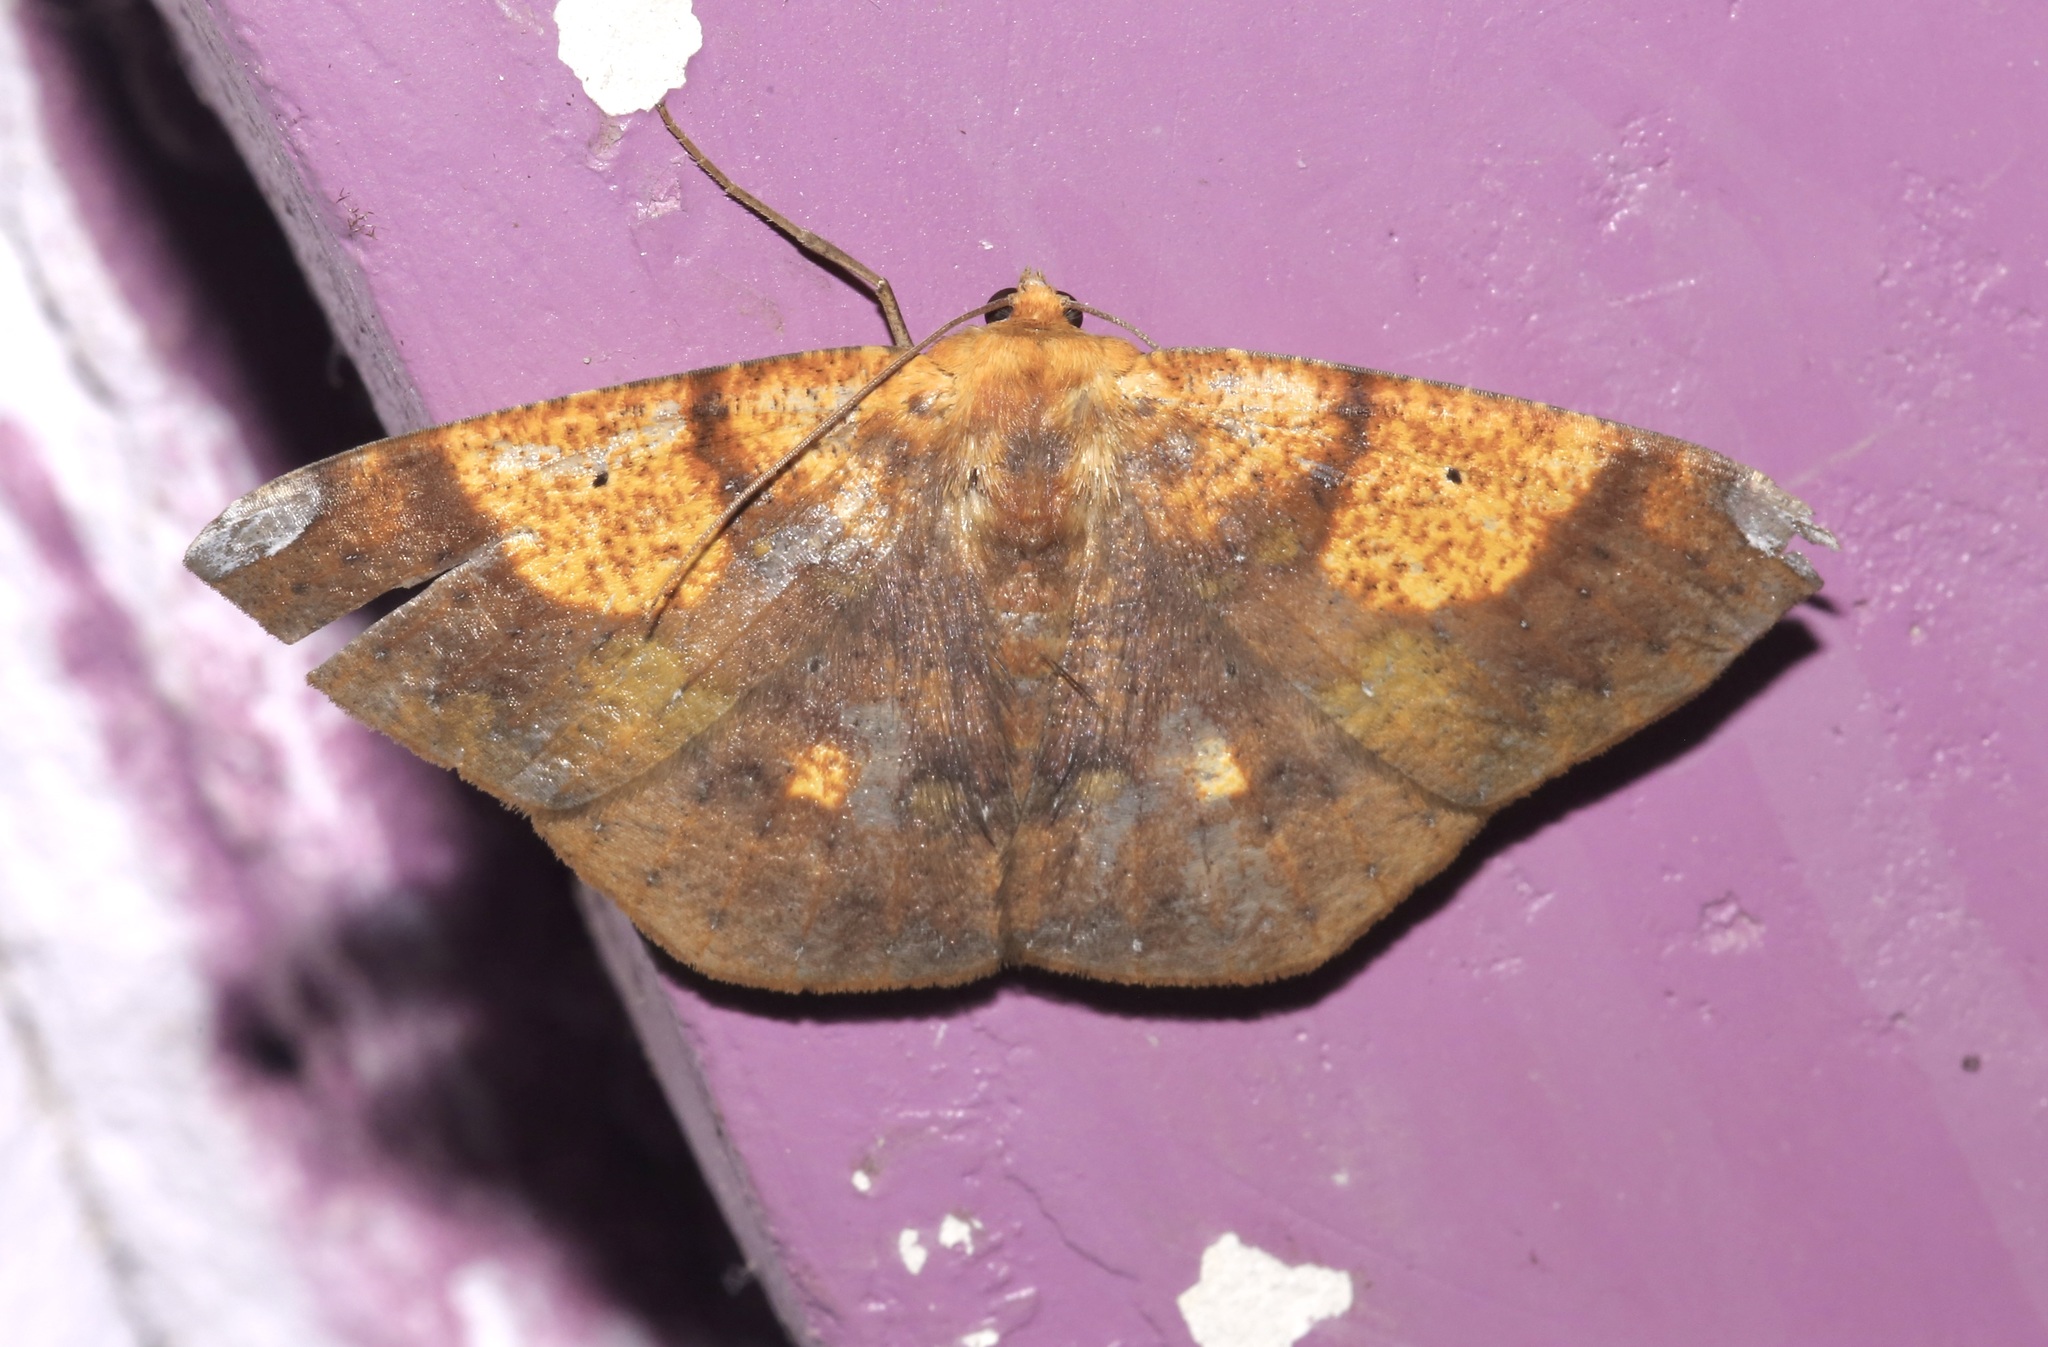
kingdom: Animalia
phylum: Arthropoda
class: Insecta
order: Lepidoptera
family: Geometridae
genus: Acrosemia
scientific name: Acrosemia vulpecularia
